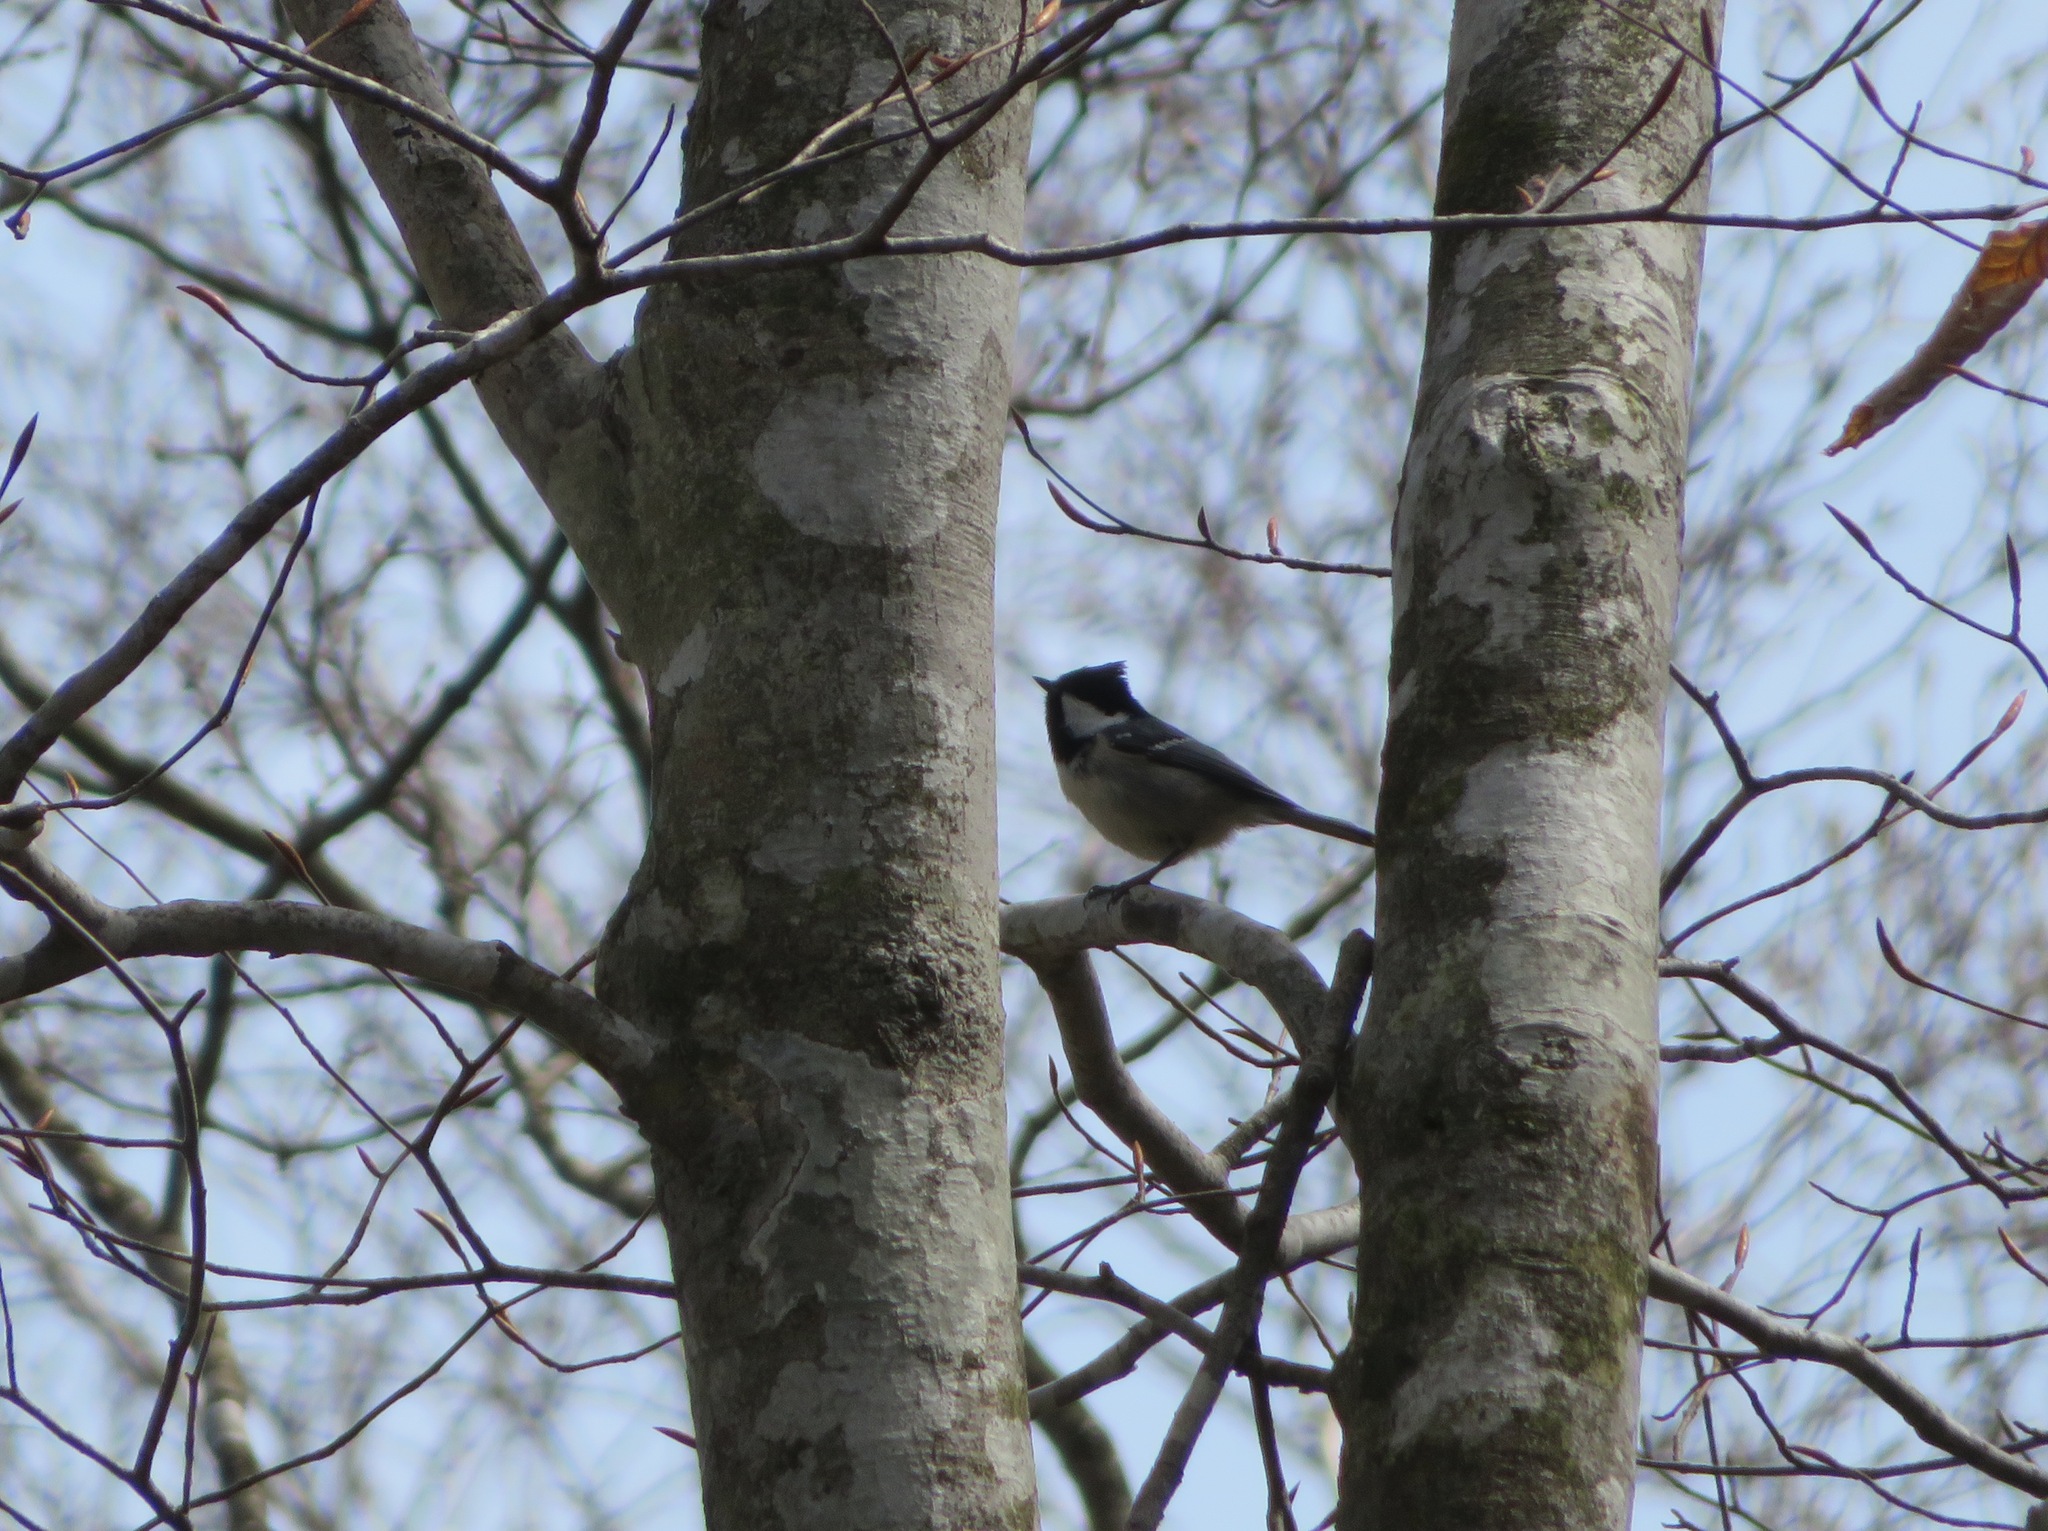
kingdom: Animalia
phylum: Chordata
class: Aves
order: Passeriformes
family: Paridae
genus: Periparus
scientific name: Periparus ater
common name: Coal tit
